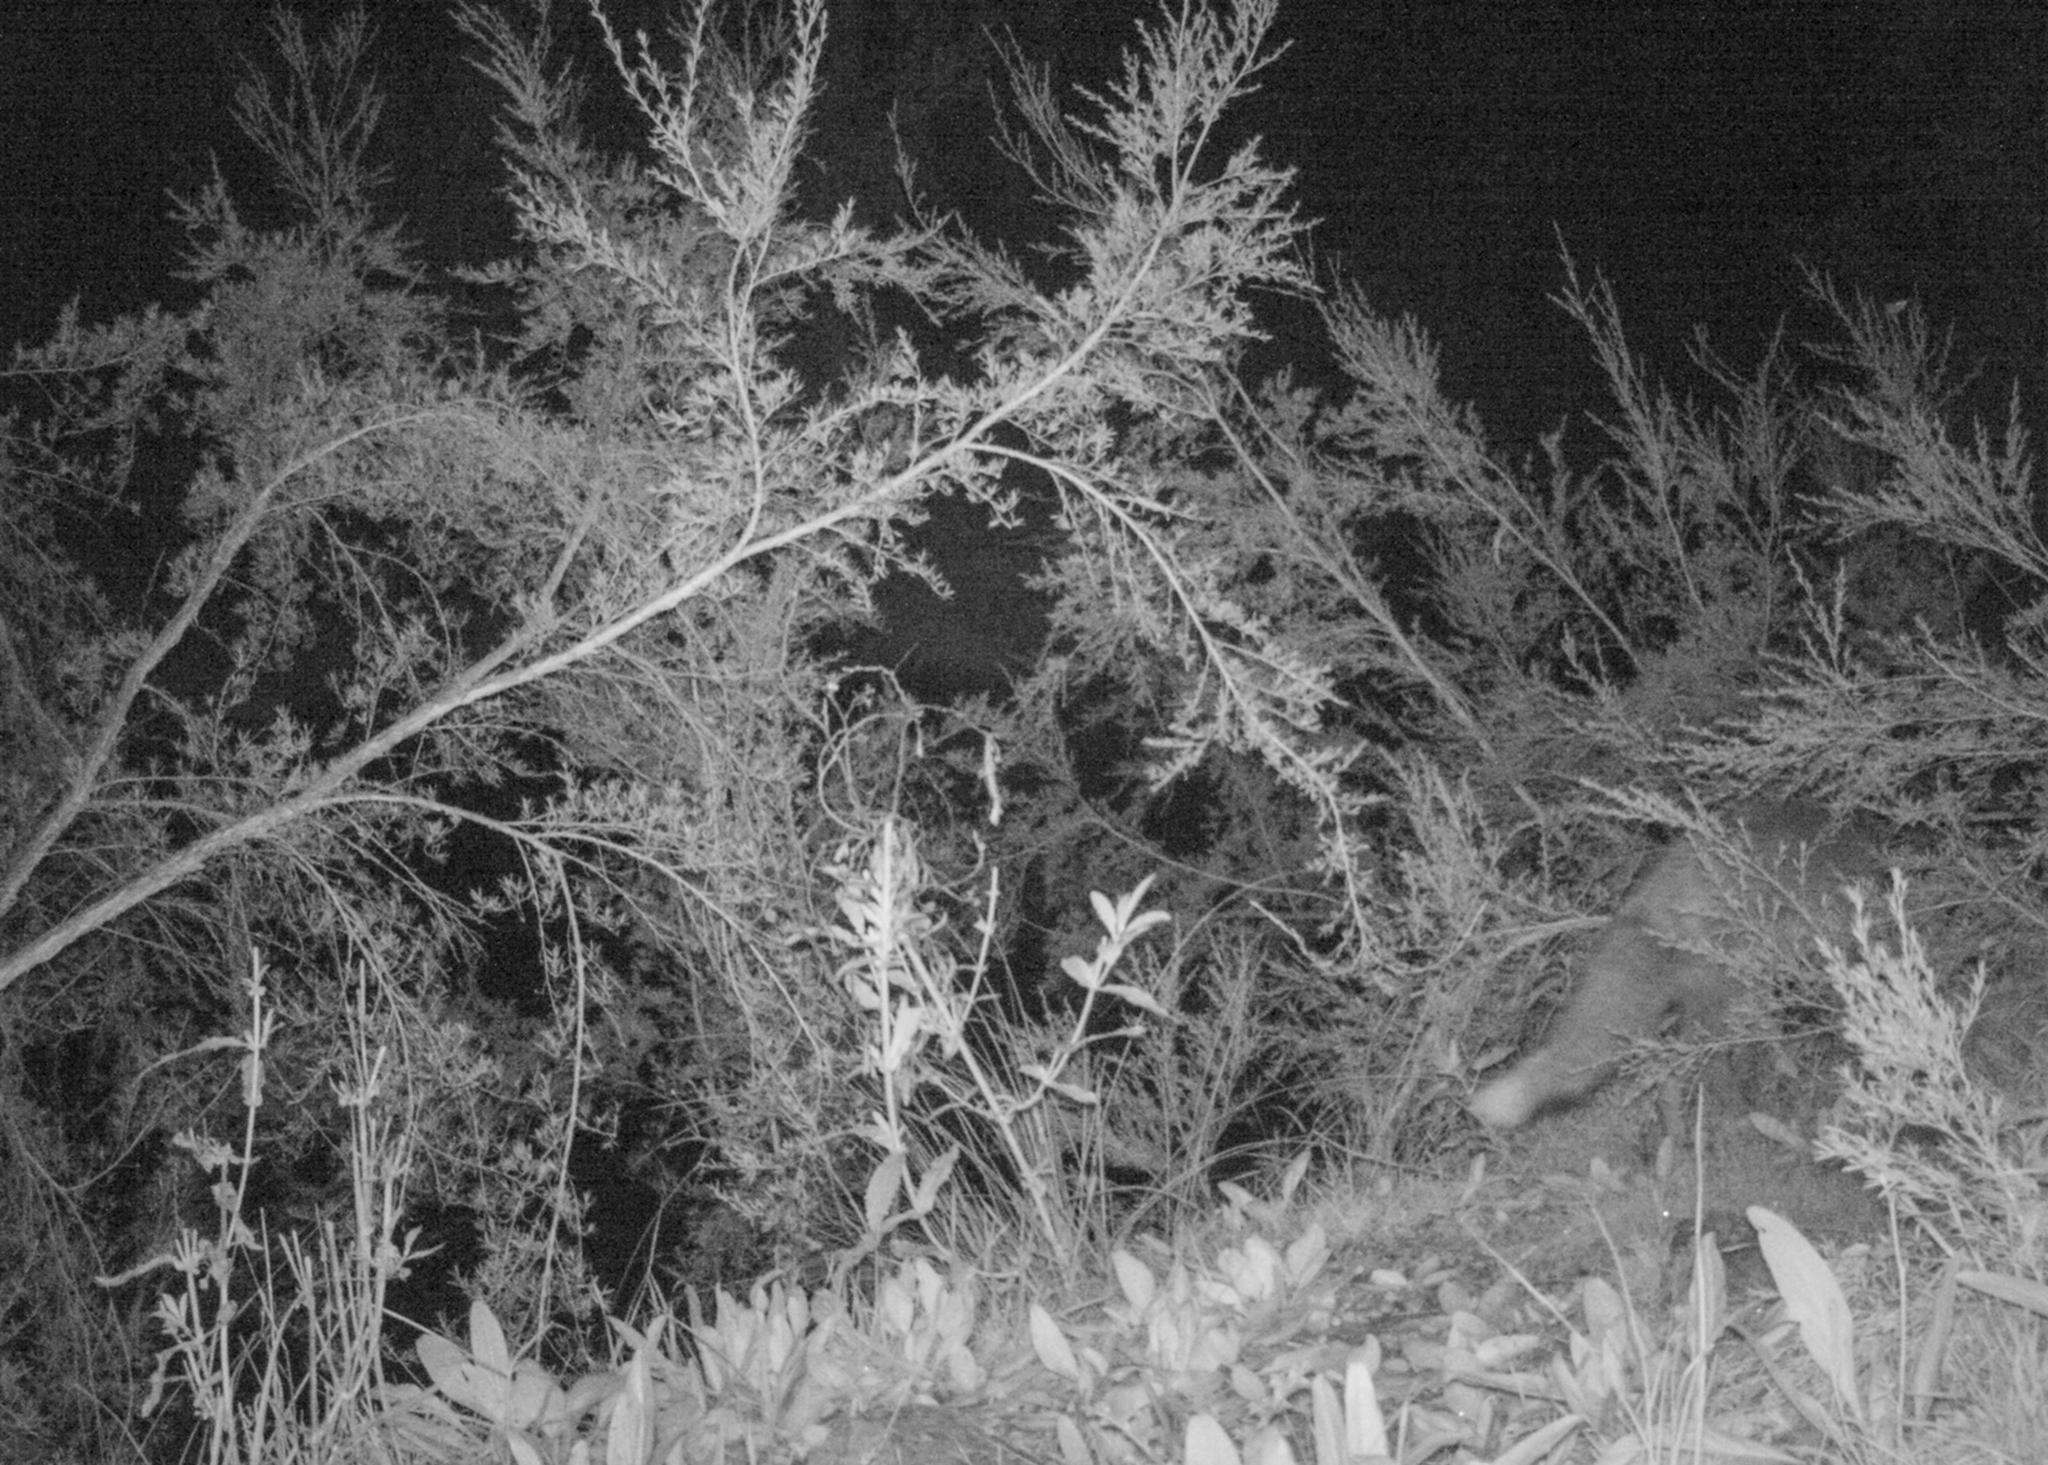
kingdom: Animalia
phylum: Chordata
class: Mammalia
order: Carnivora
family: Canidae
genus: Vulpes
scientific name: Vulpes vulpes
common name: Red fox
